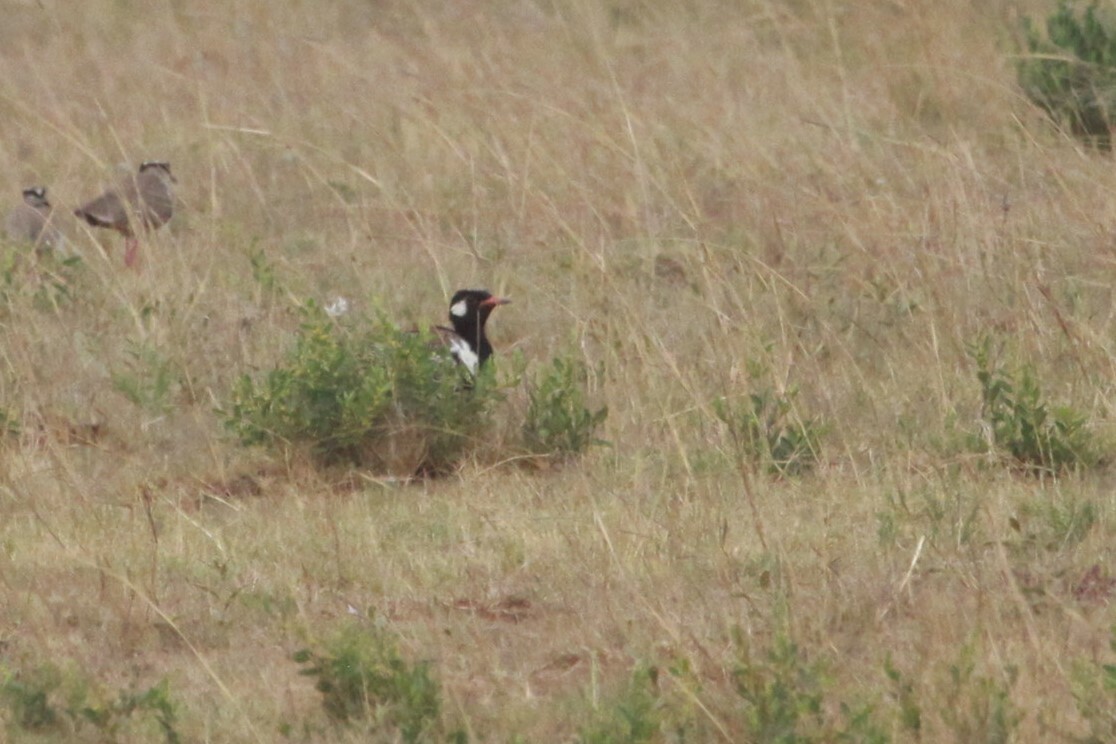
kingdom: Animalia
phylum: Chordata
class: Aves
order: Otidiformes
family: Otididae
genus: Afrotis
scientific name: Afrotis afraoides
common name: Northern black korhaan
